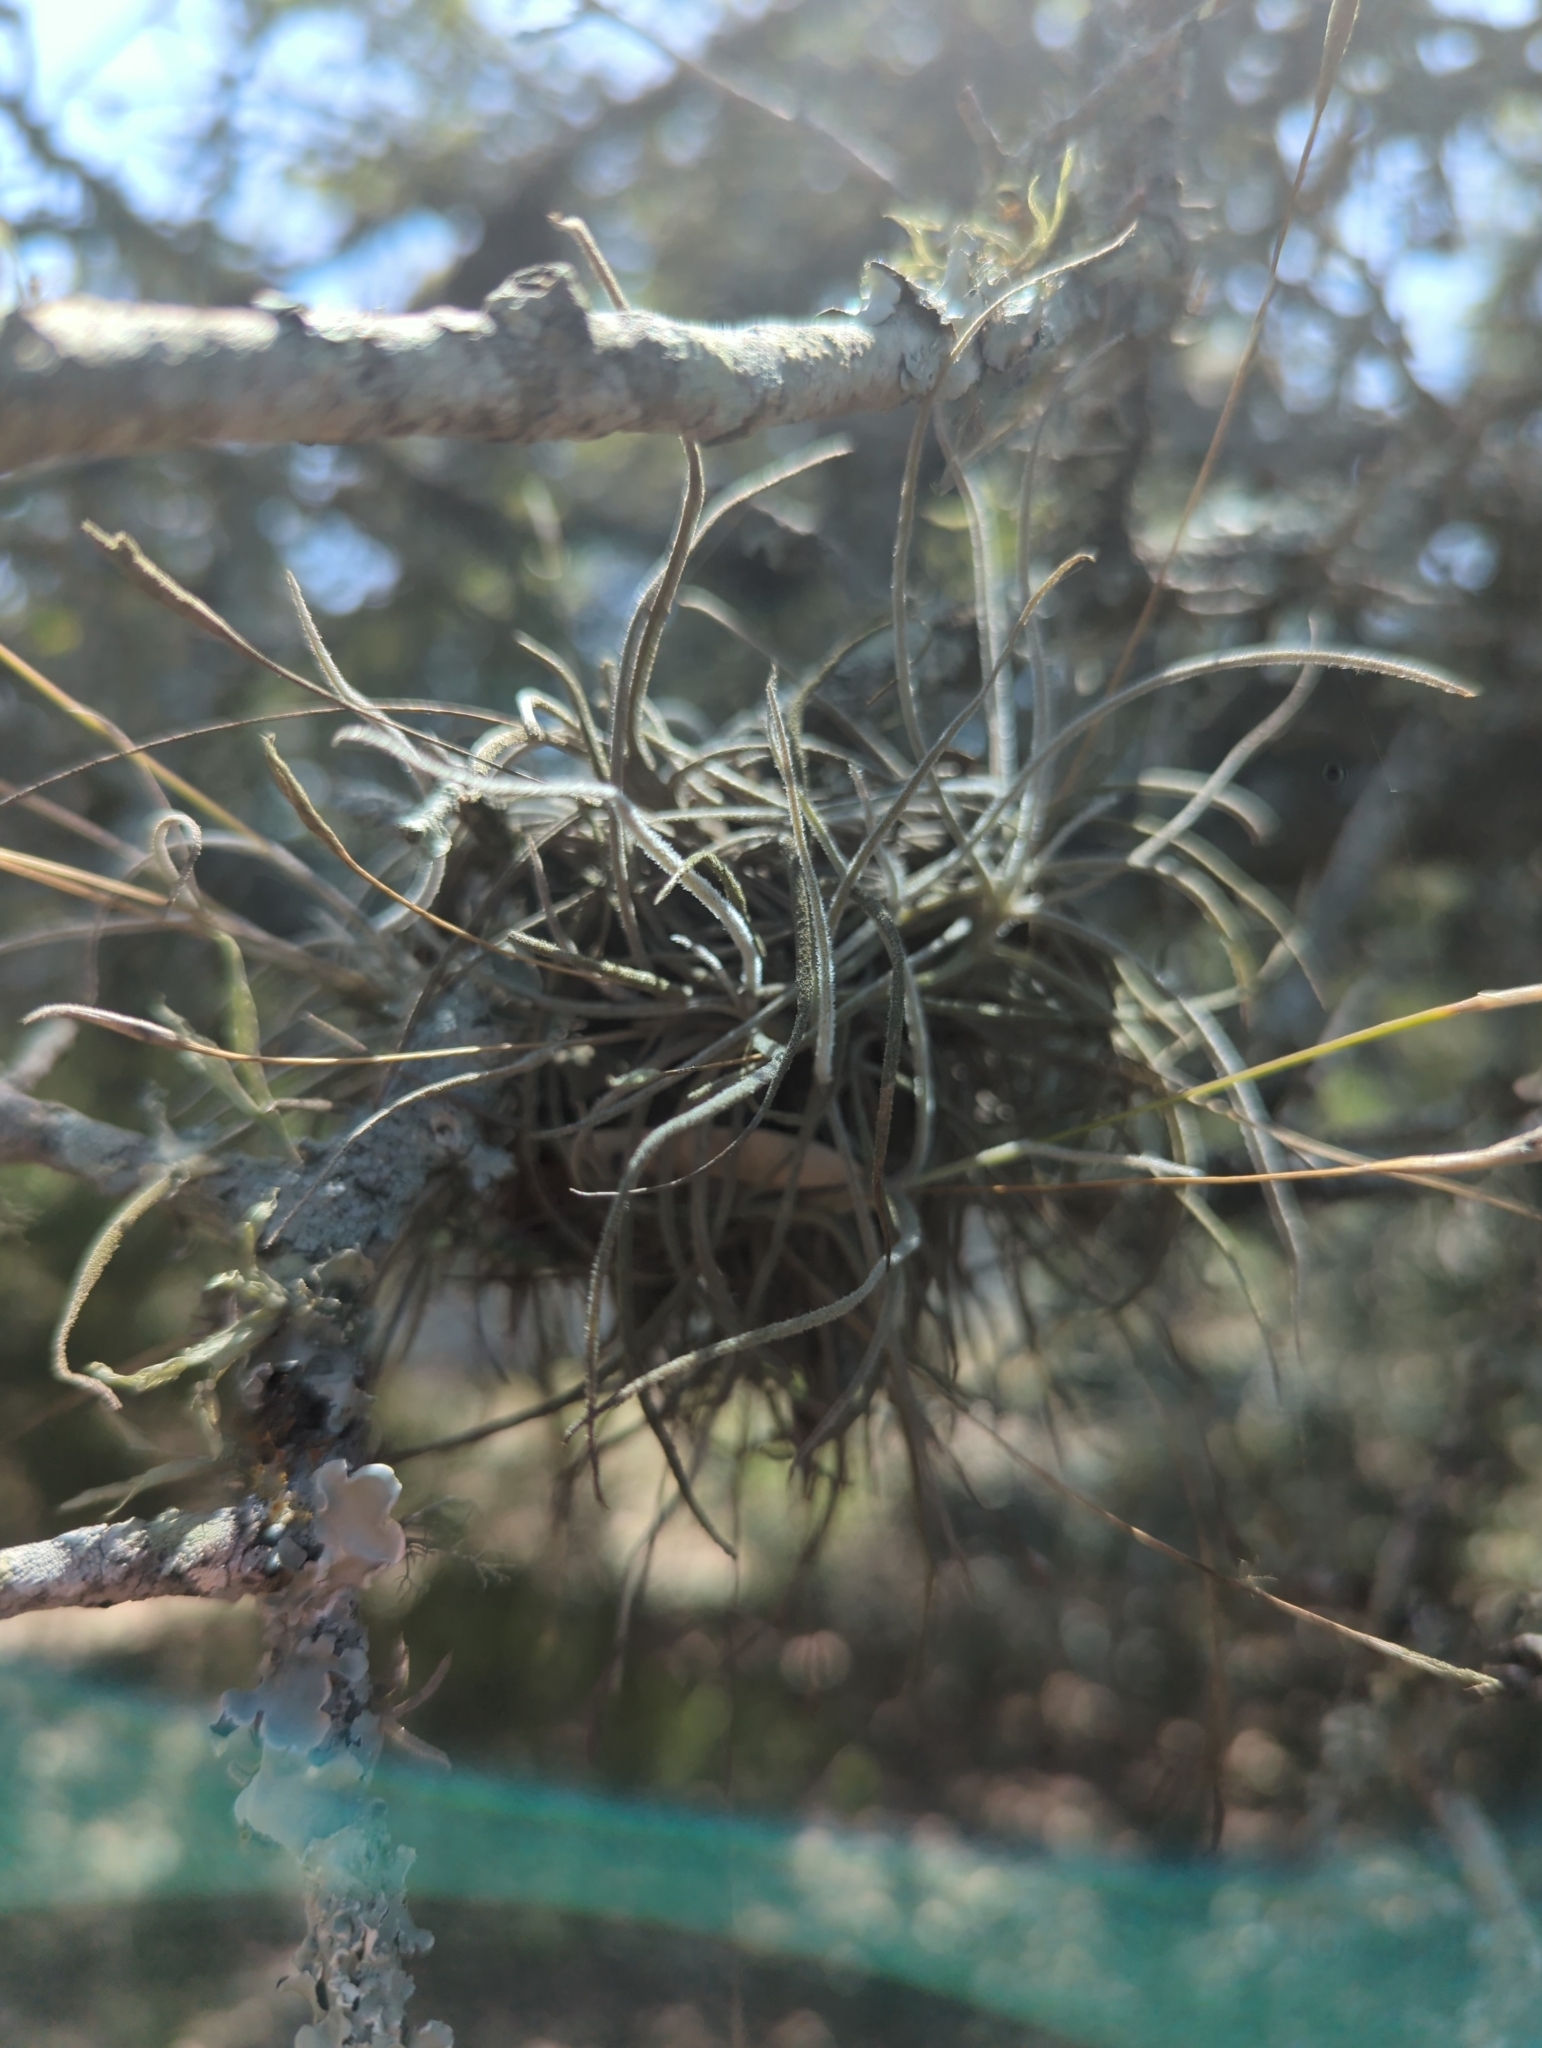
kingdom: Plantae
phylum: Tracheophyta
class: Liliopsida
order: Poales
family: Bromeliaceae
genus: Tillandsia
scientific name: Tillandsia recurvata
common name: Small ballmoss
